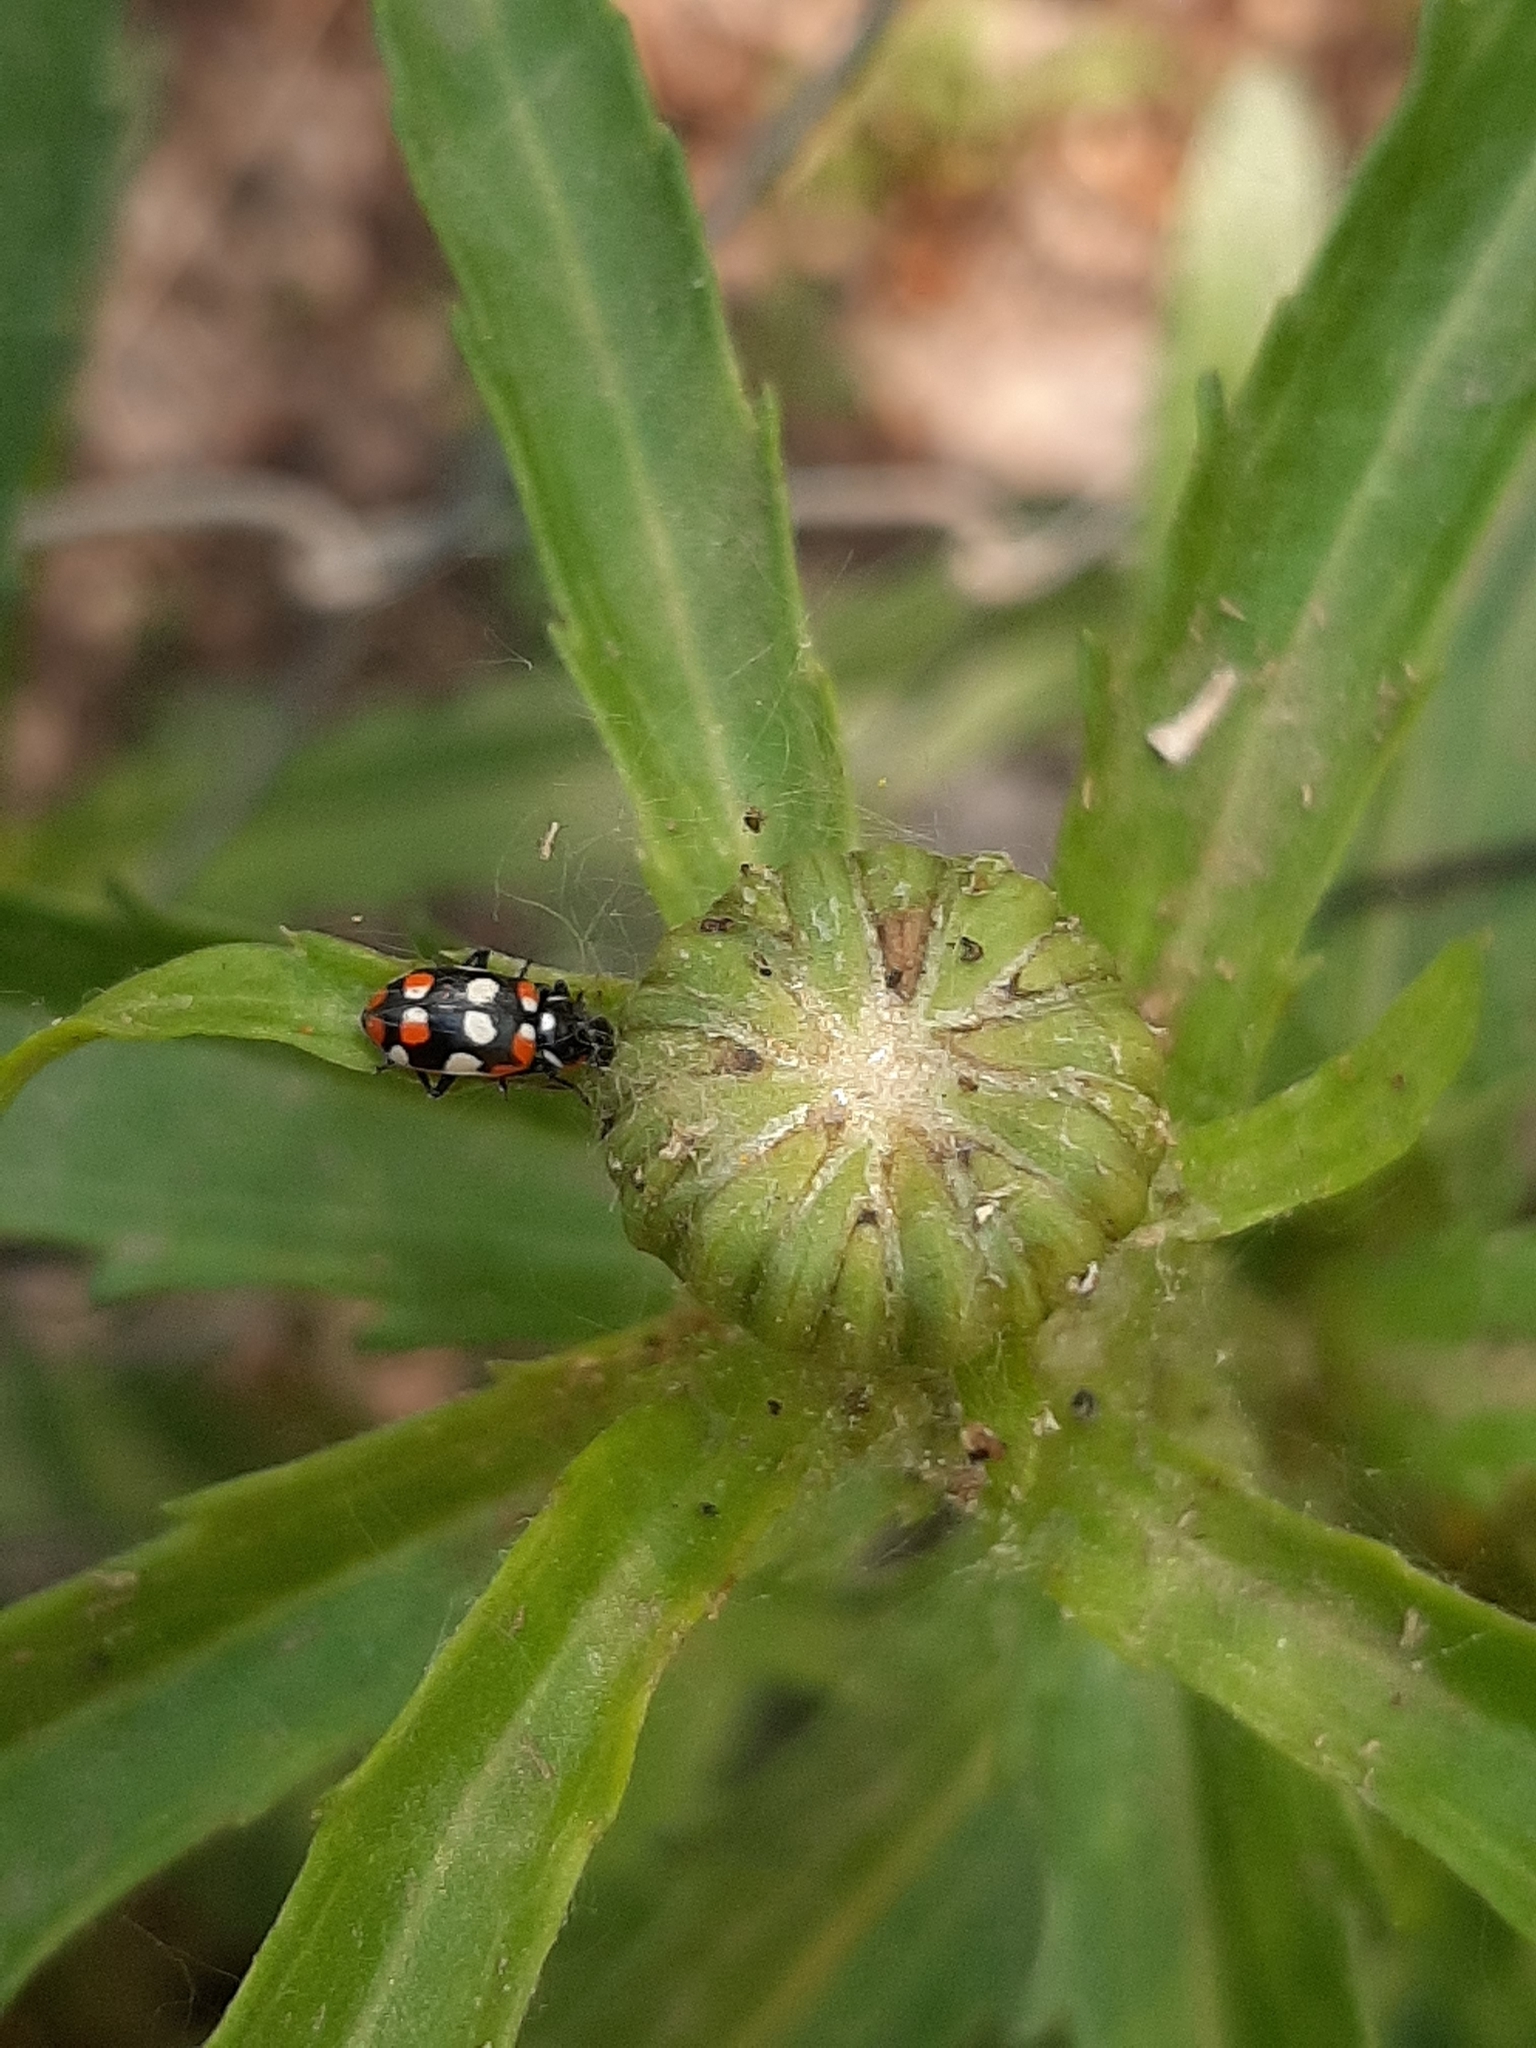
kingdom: Animalia
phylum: Arthropoda
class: Insecta
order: Coleoptera
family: Coccinellidae
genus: Eriopis
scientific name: Eriopis connexa
